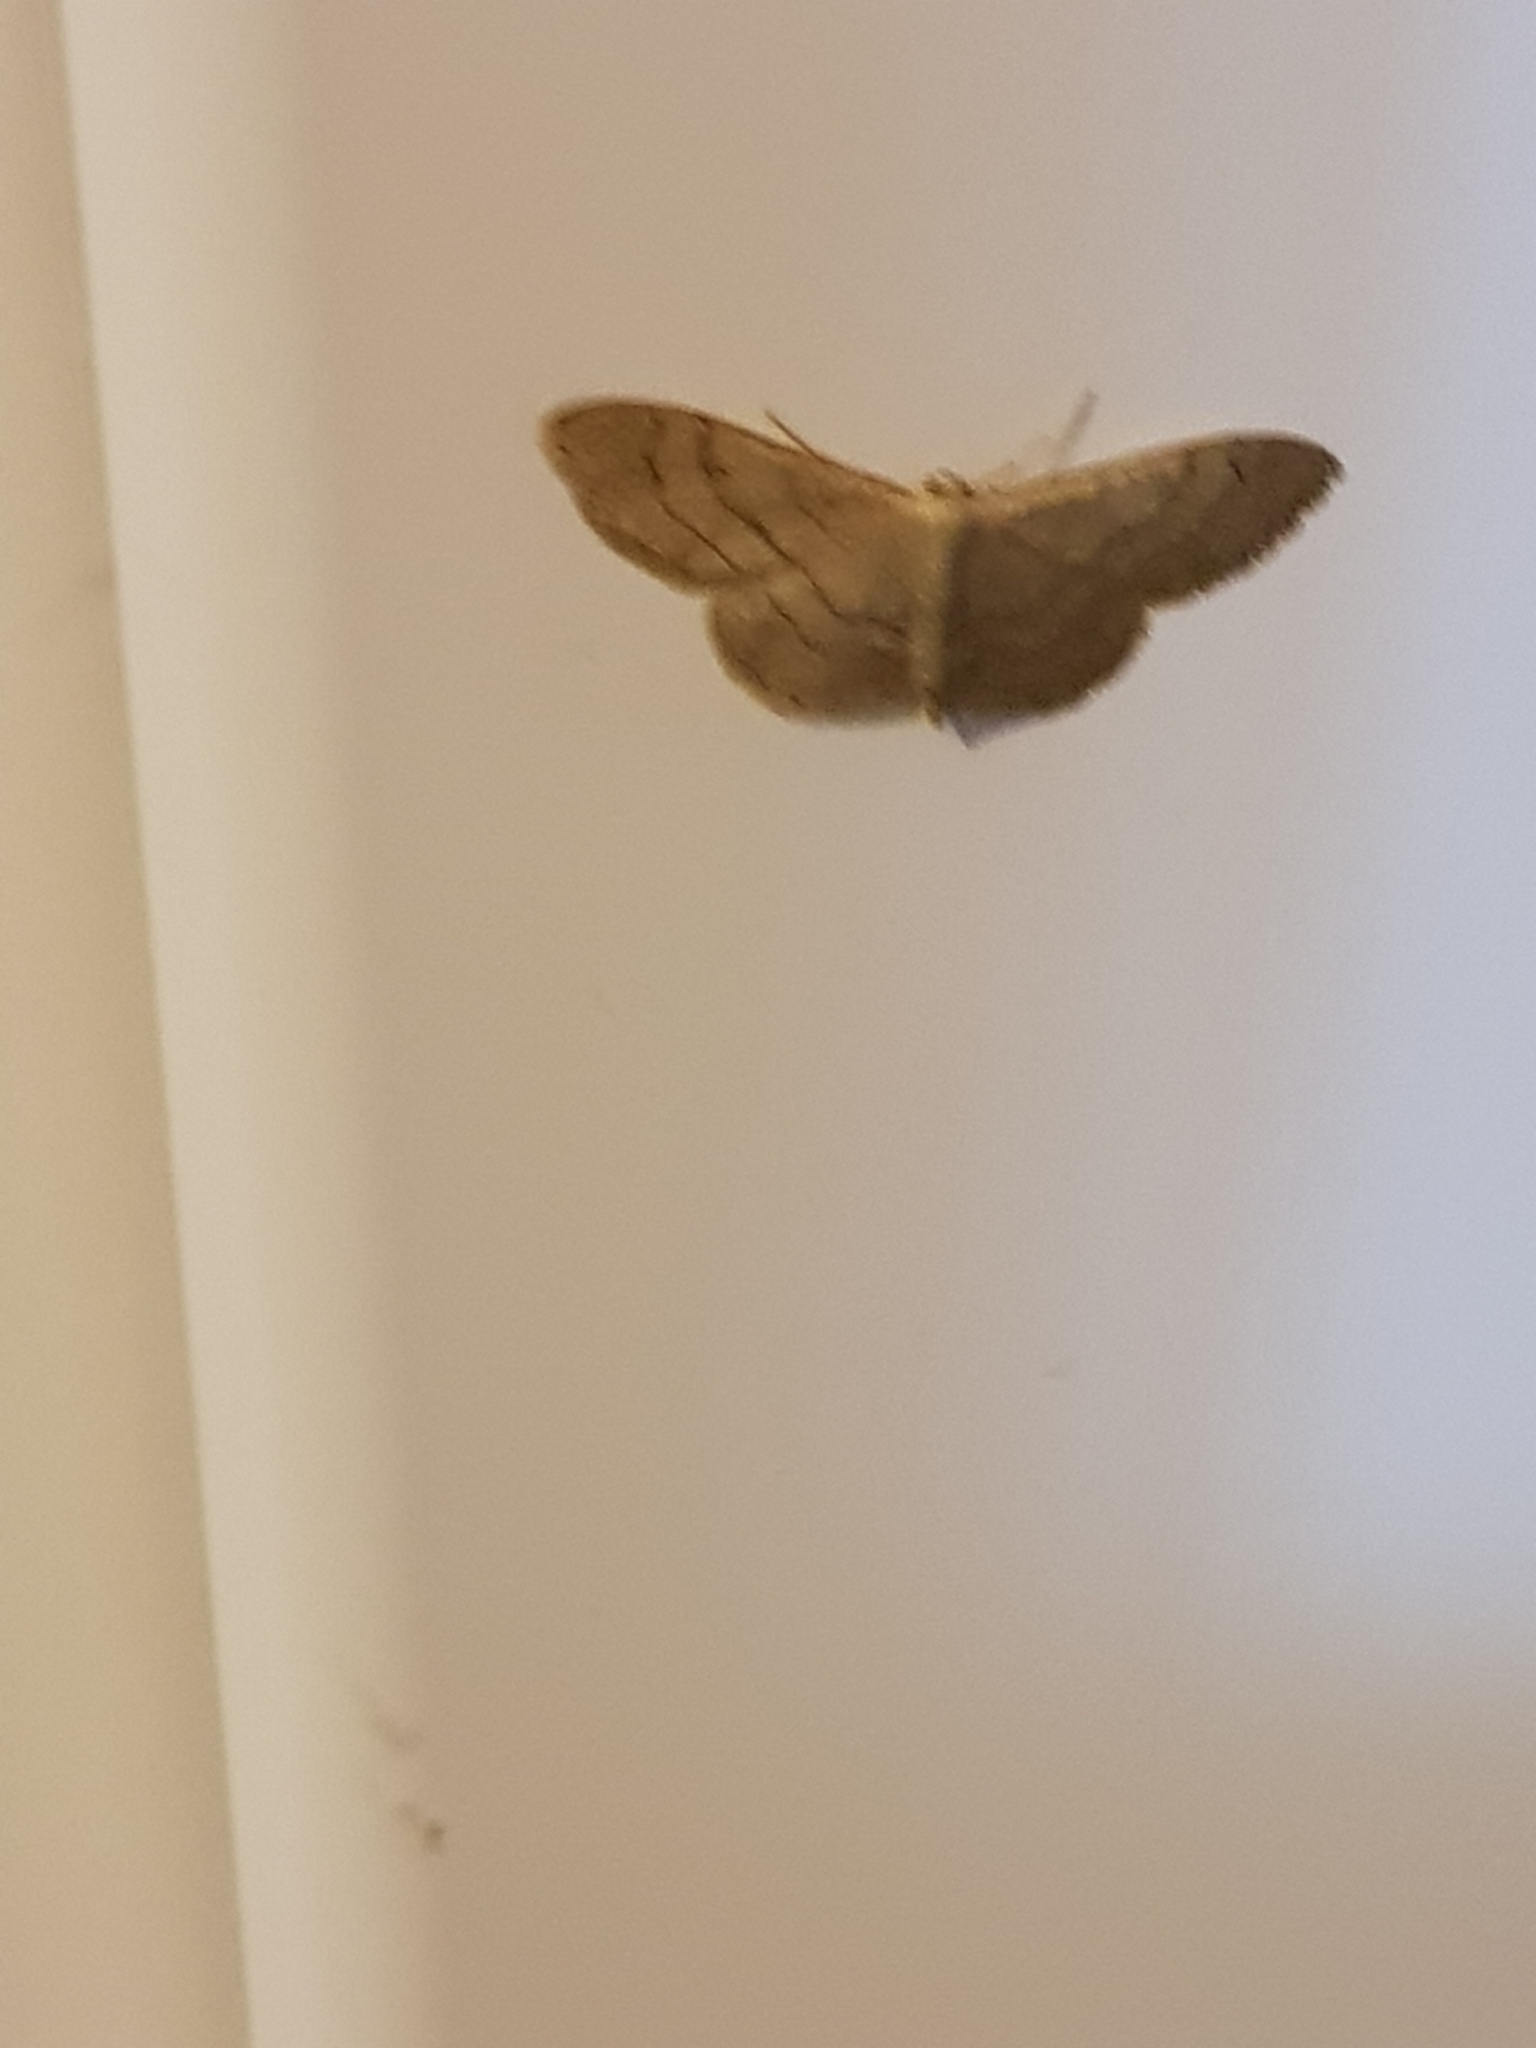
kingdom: Animalia
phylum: Arthropoda
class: Insecta
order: Lepidoptera
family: Geometridae
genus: Idaea
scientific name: Idaea aversata
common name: Riband wave
